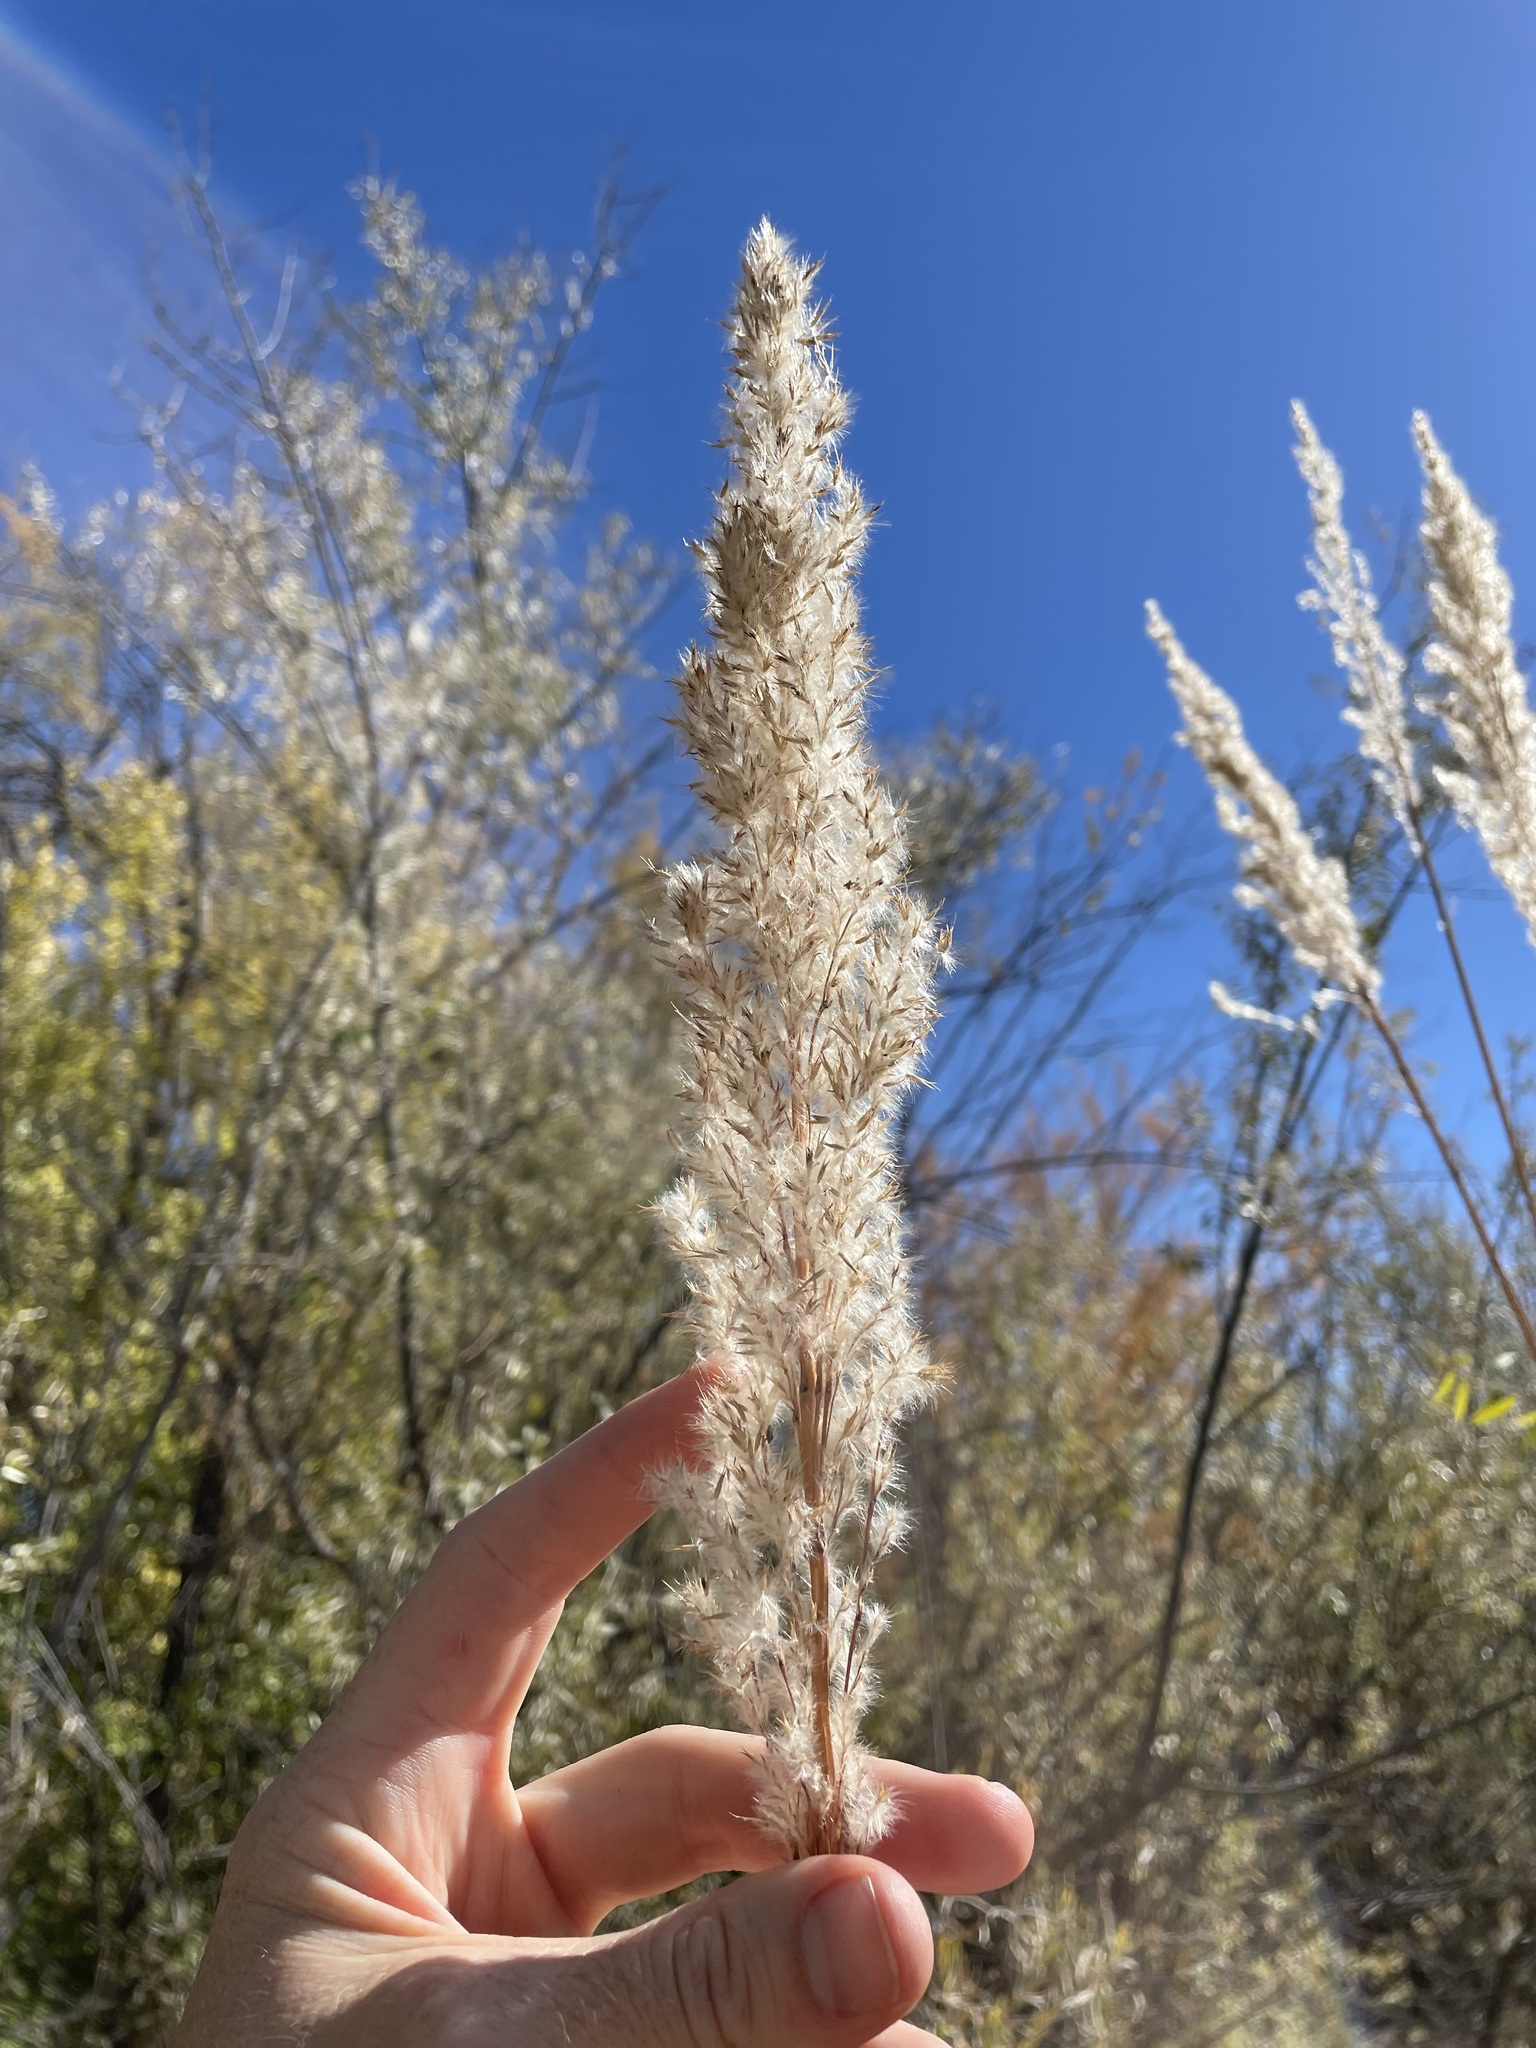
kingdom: Plantae
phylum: Tracheophyta
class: Liliopsida
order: Poales
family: Poaceae
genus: Tripidium
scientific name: Tripidium ravennae
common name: Ravenna grass
